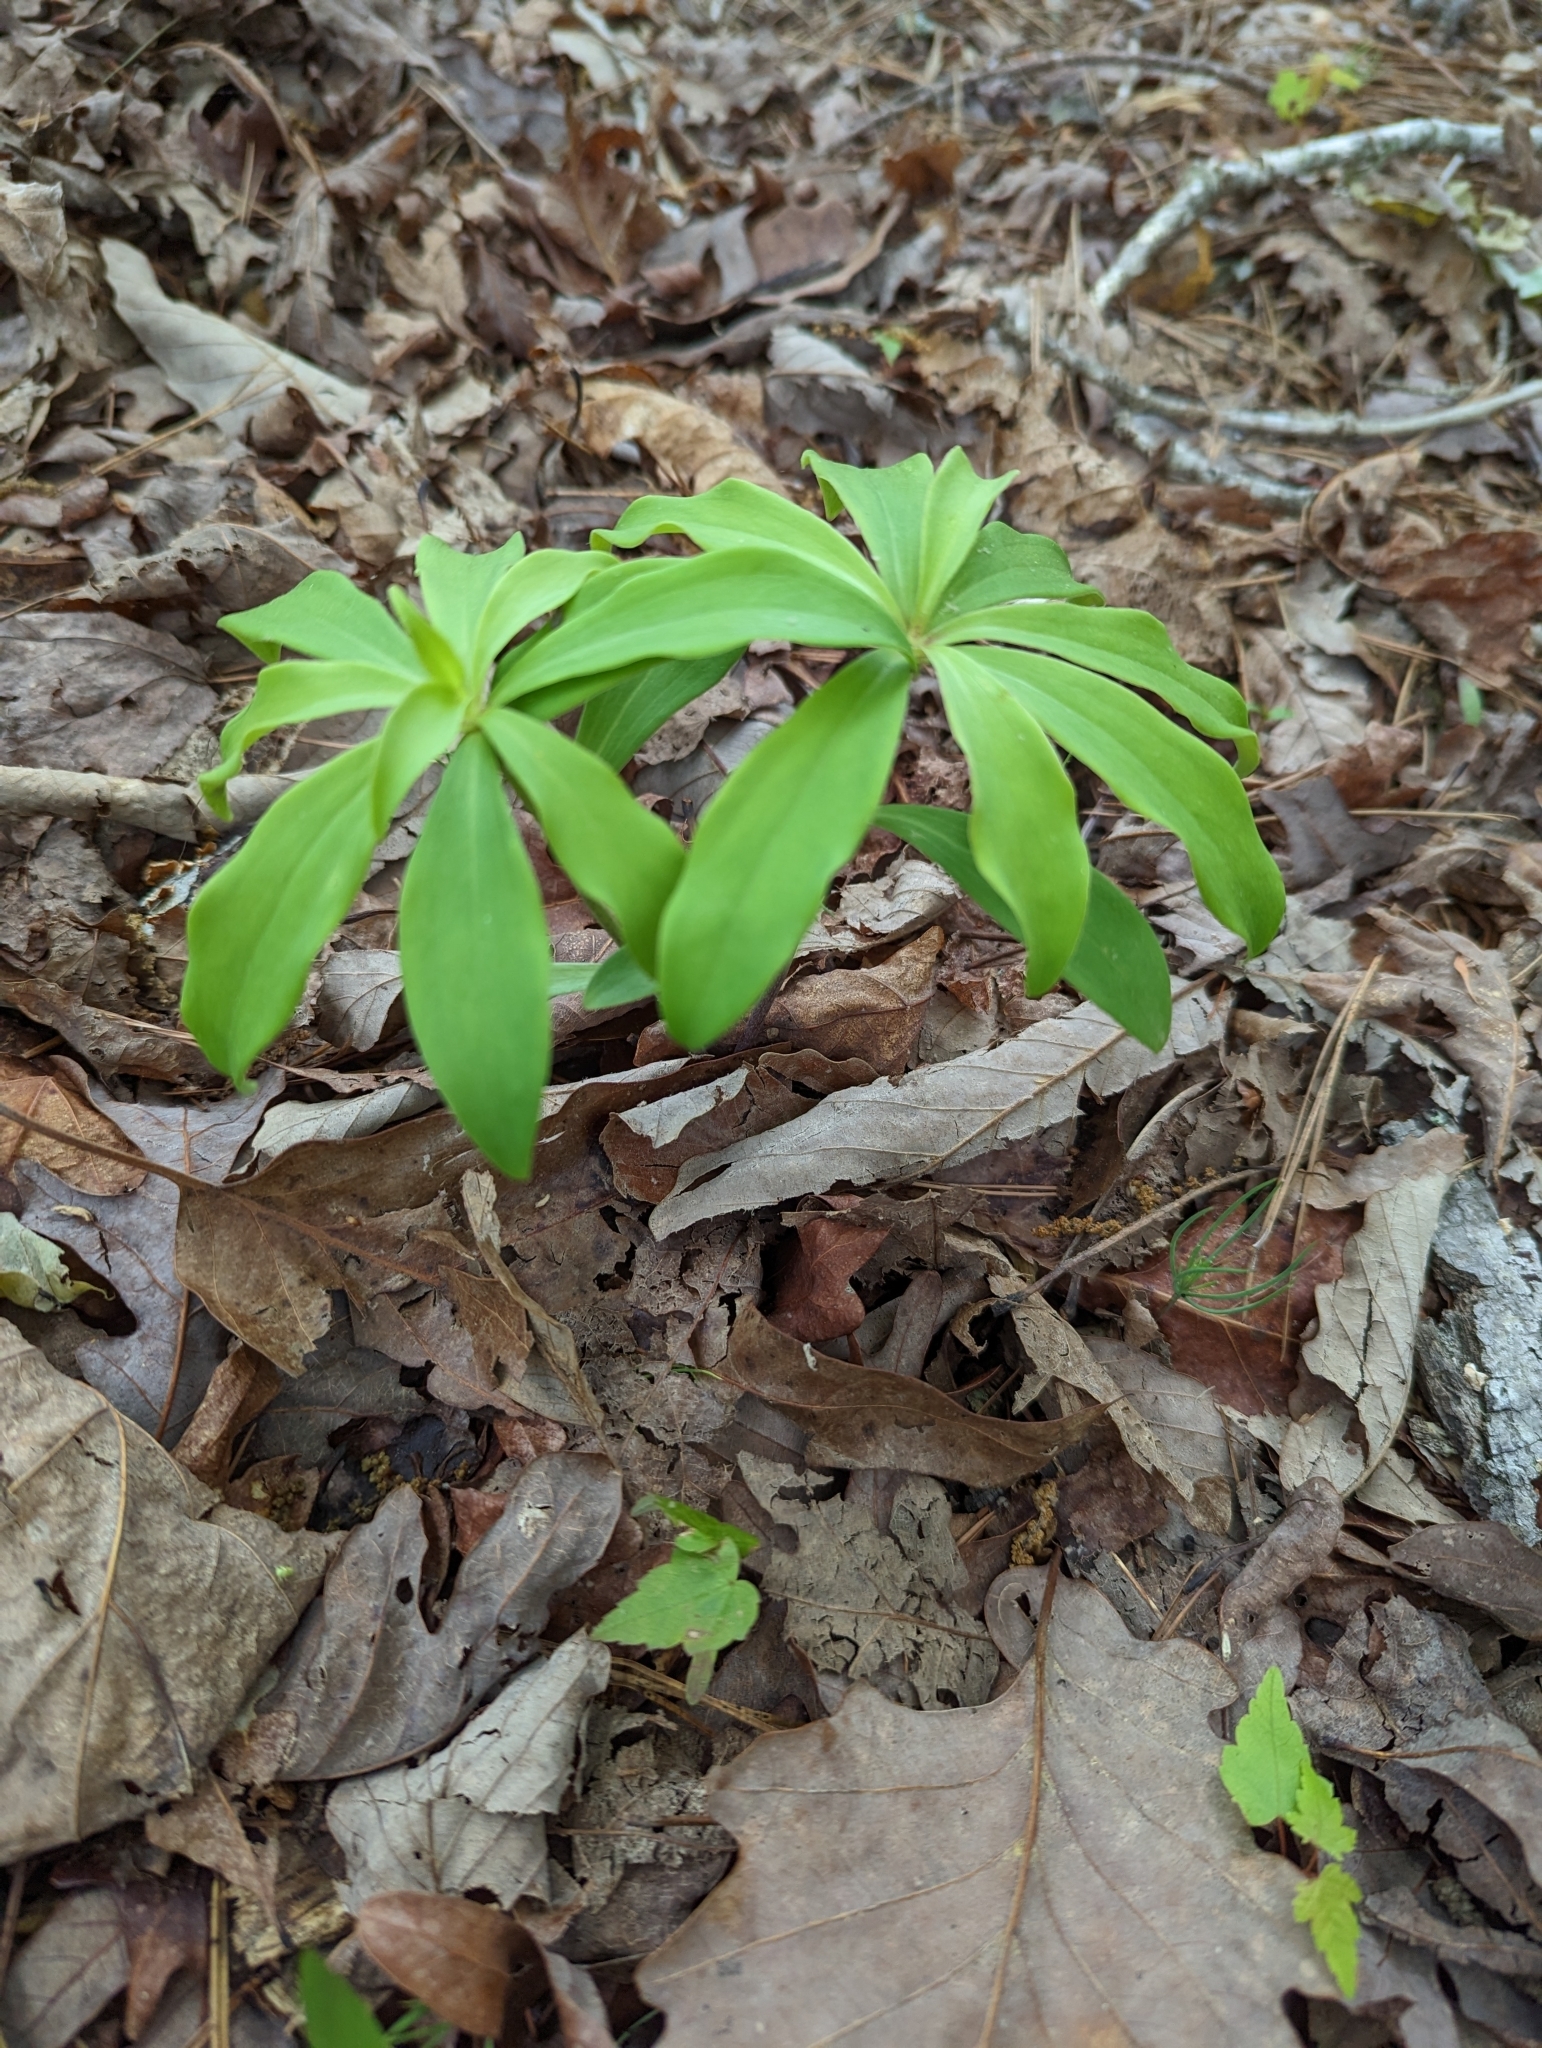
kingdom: Plantae
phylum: Tracheophyta
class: Liliopsida
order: Liliales
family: Liliaceae
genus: Lilium
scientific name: Lilium michauxii
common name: Carolina lily
